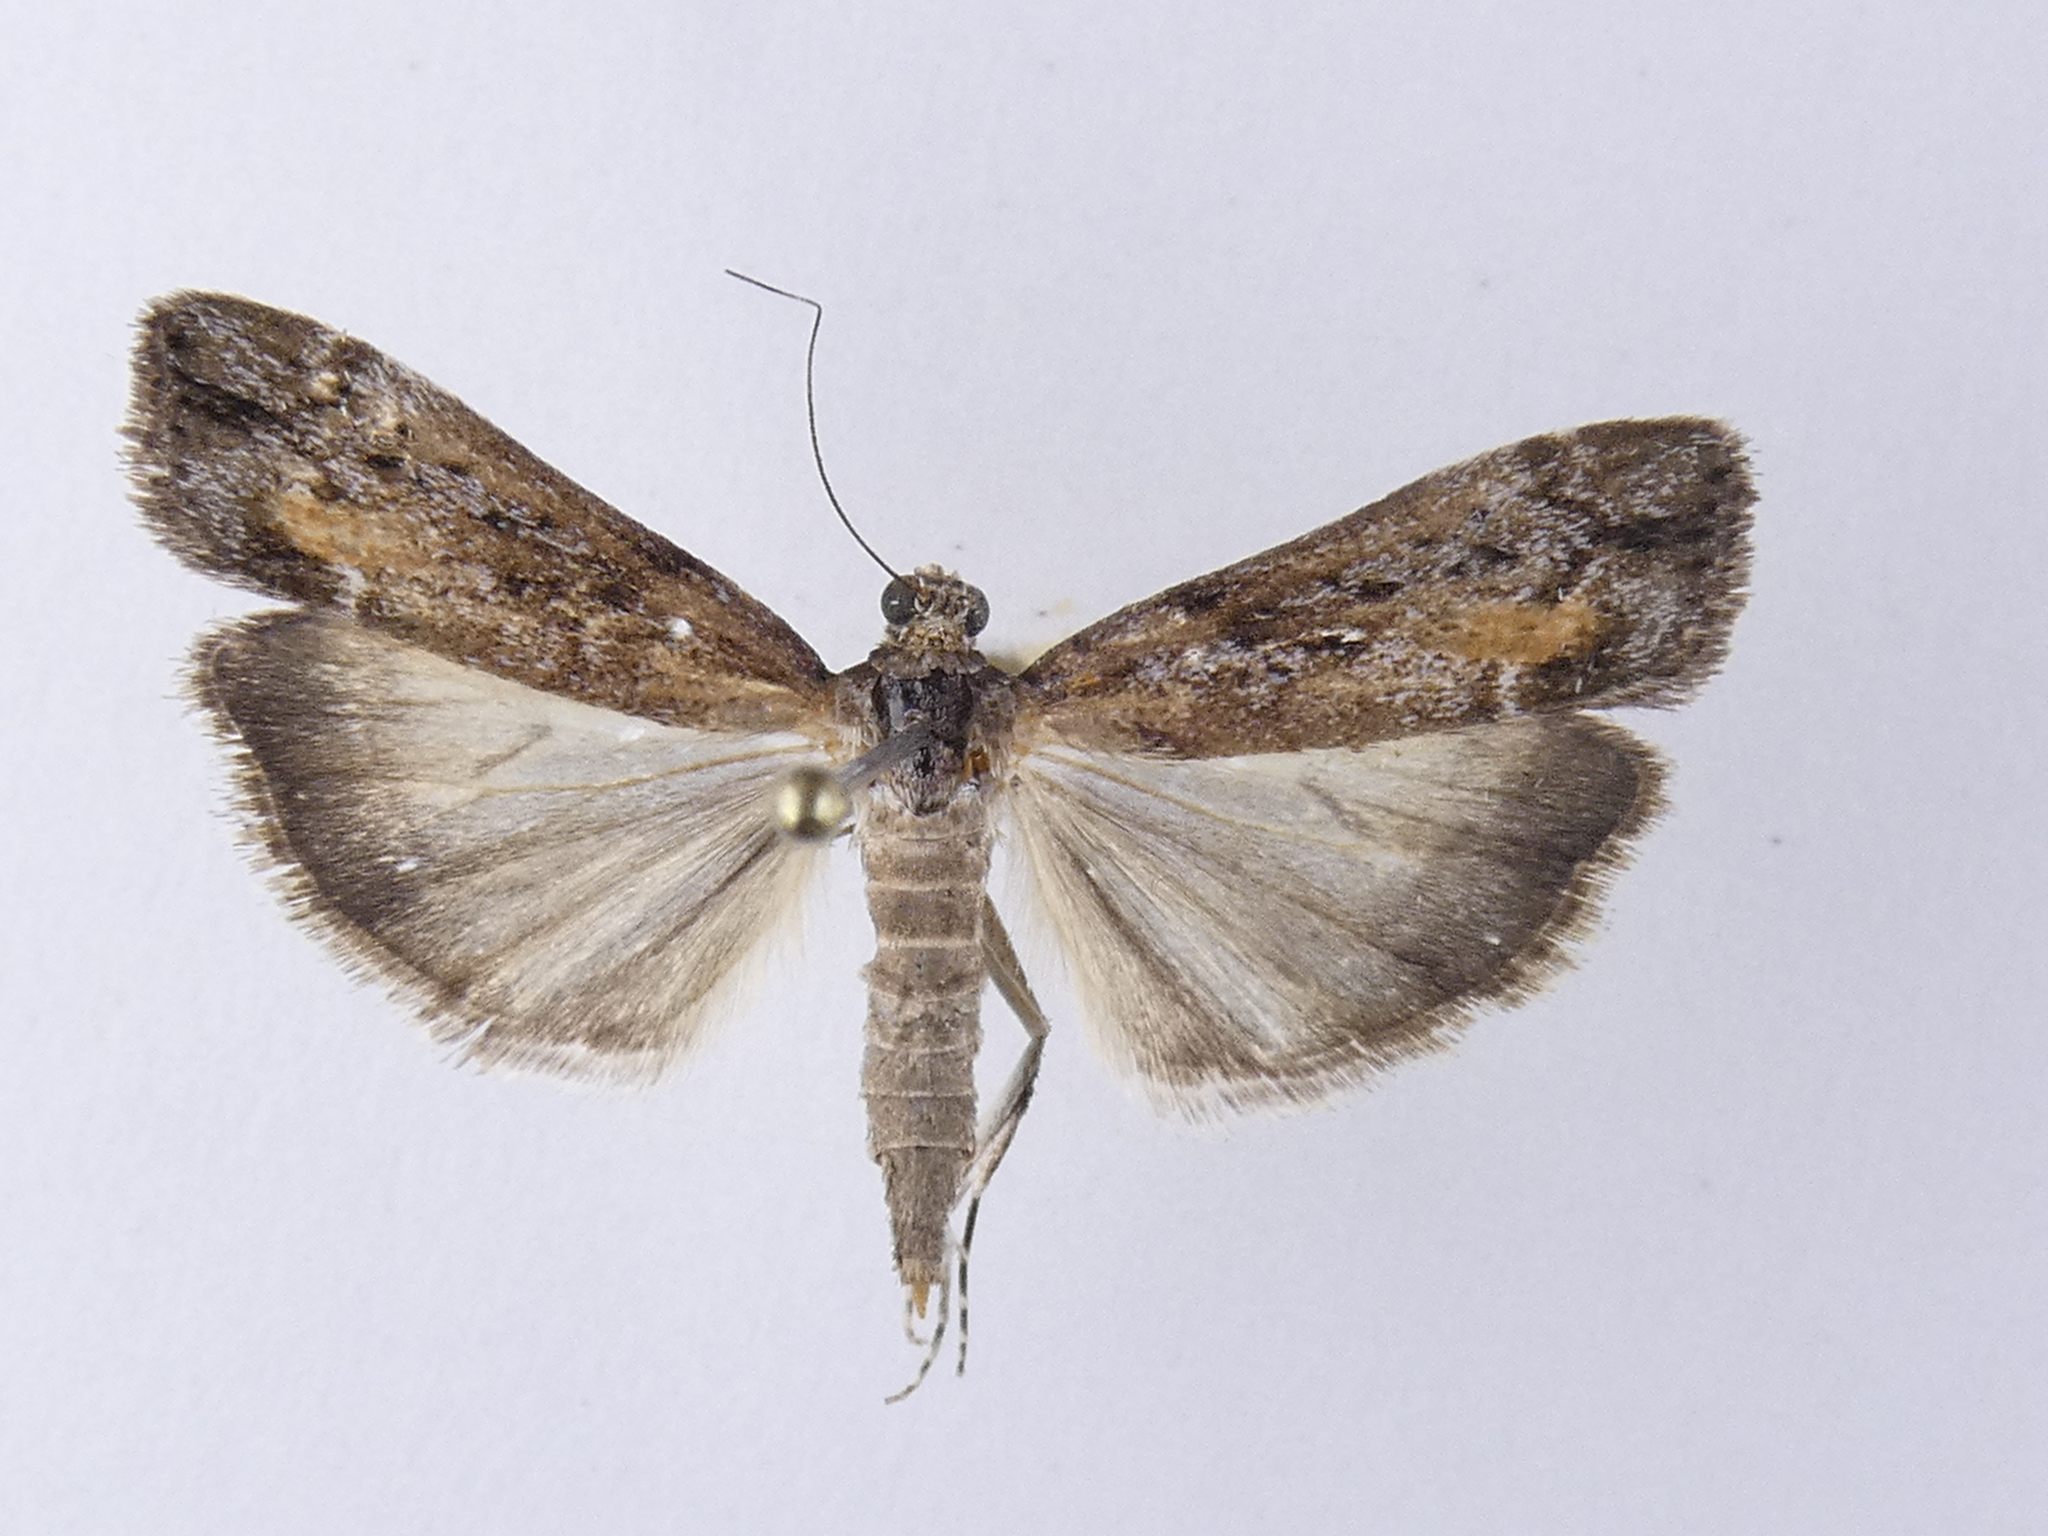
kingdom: Animalia
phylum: Arthropoda
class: Insecta
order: Lepidoptera
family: Crambidae
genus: Eudonia
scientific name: Eudonia submarginalis
